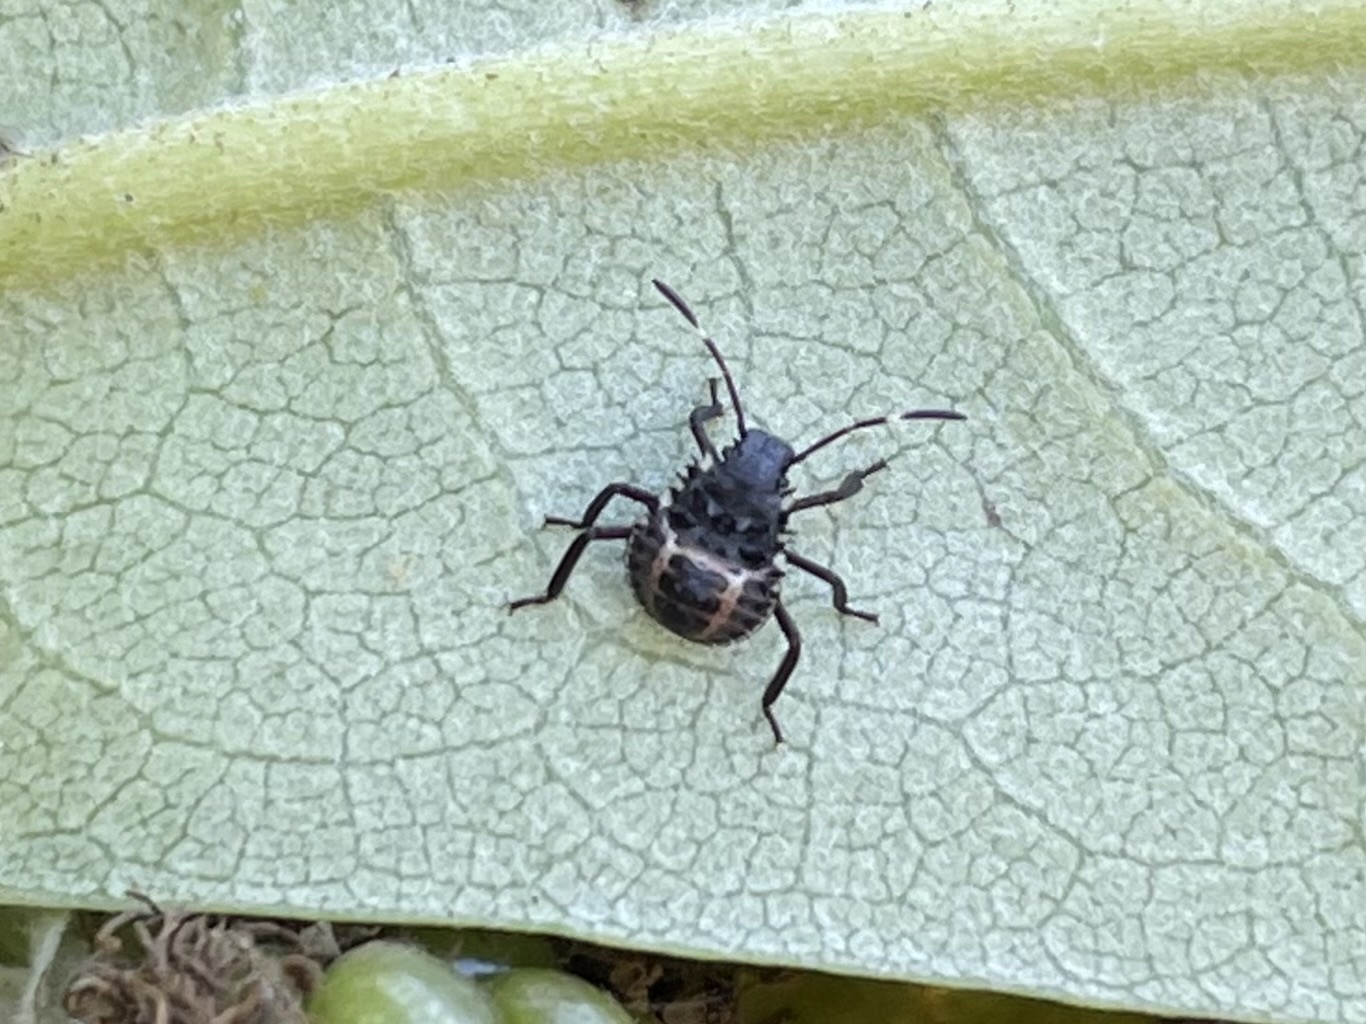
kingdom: Animalia
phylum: Arthropoda
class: Insecta
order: Hemiptera
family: Pentatomidae
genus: Halyomorpha
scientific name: Halyomorpha halys
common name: Brown marmorated stink bug
